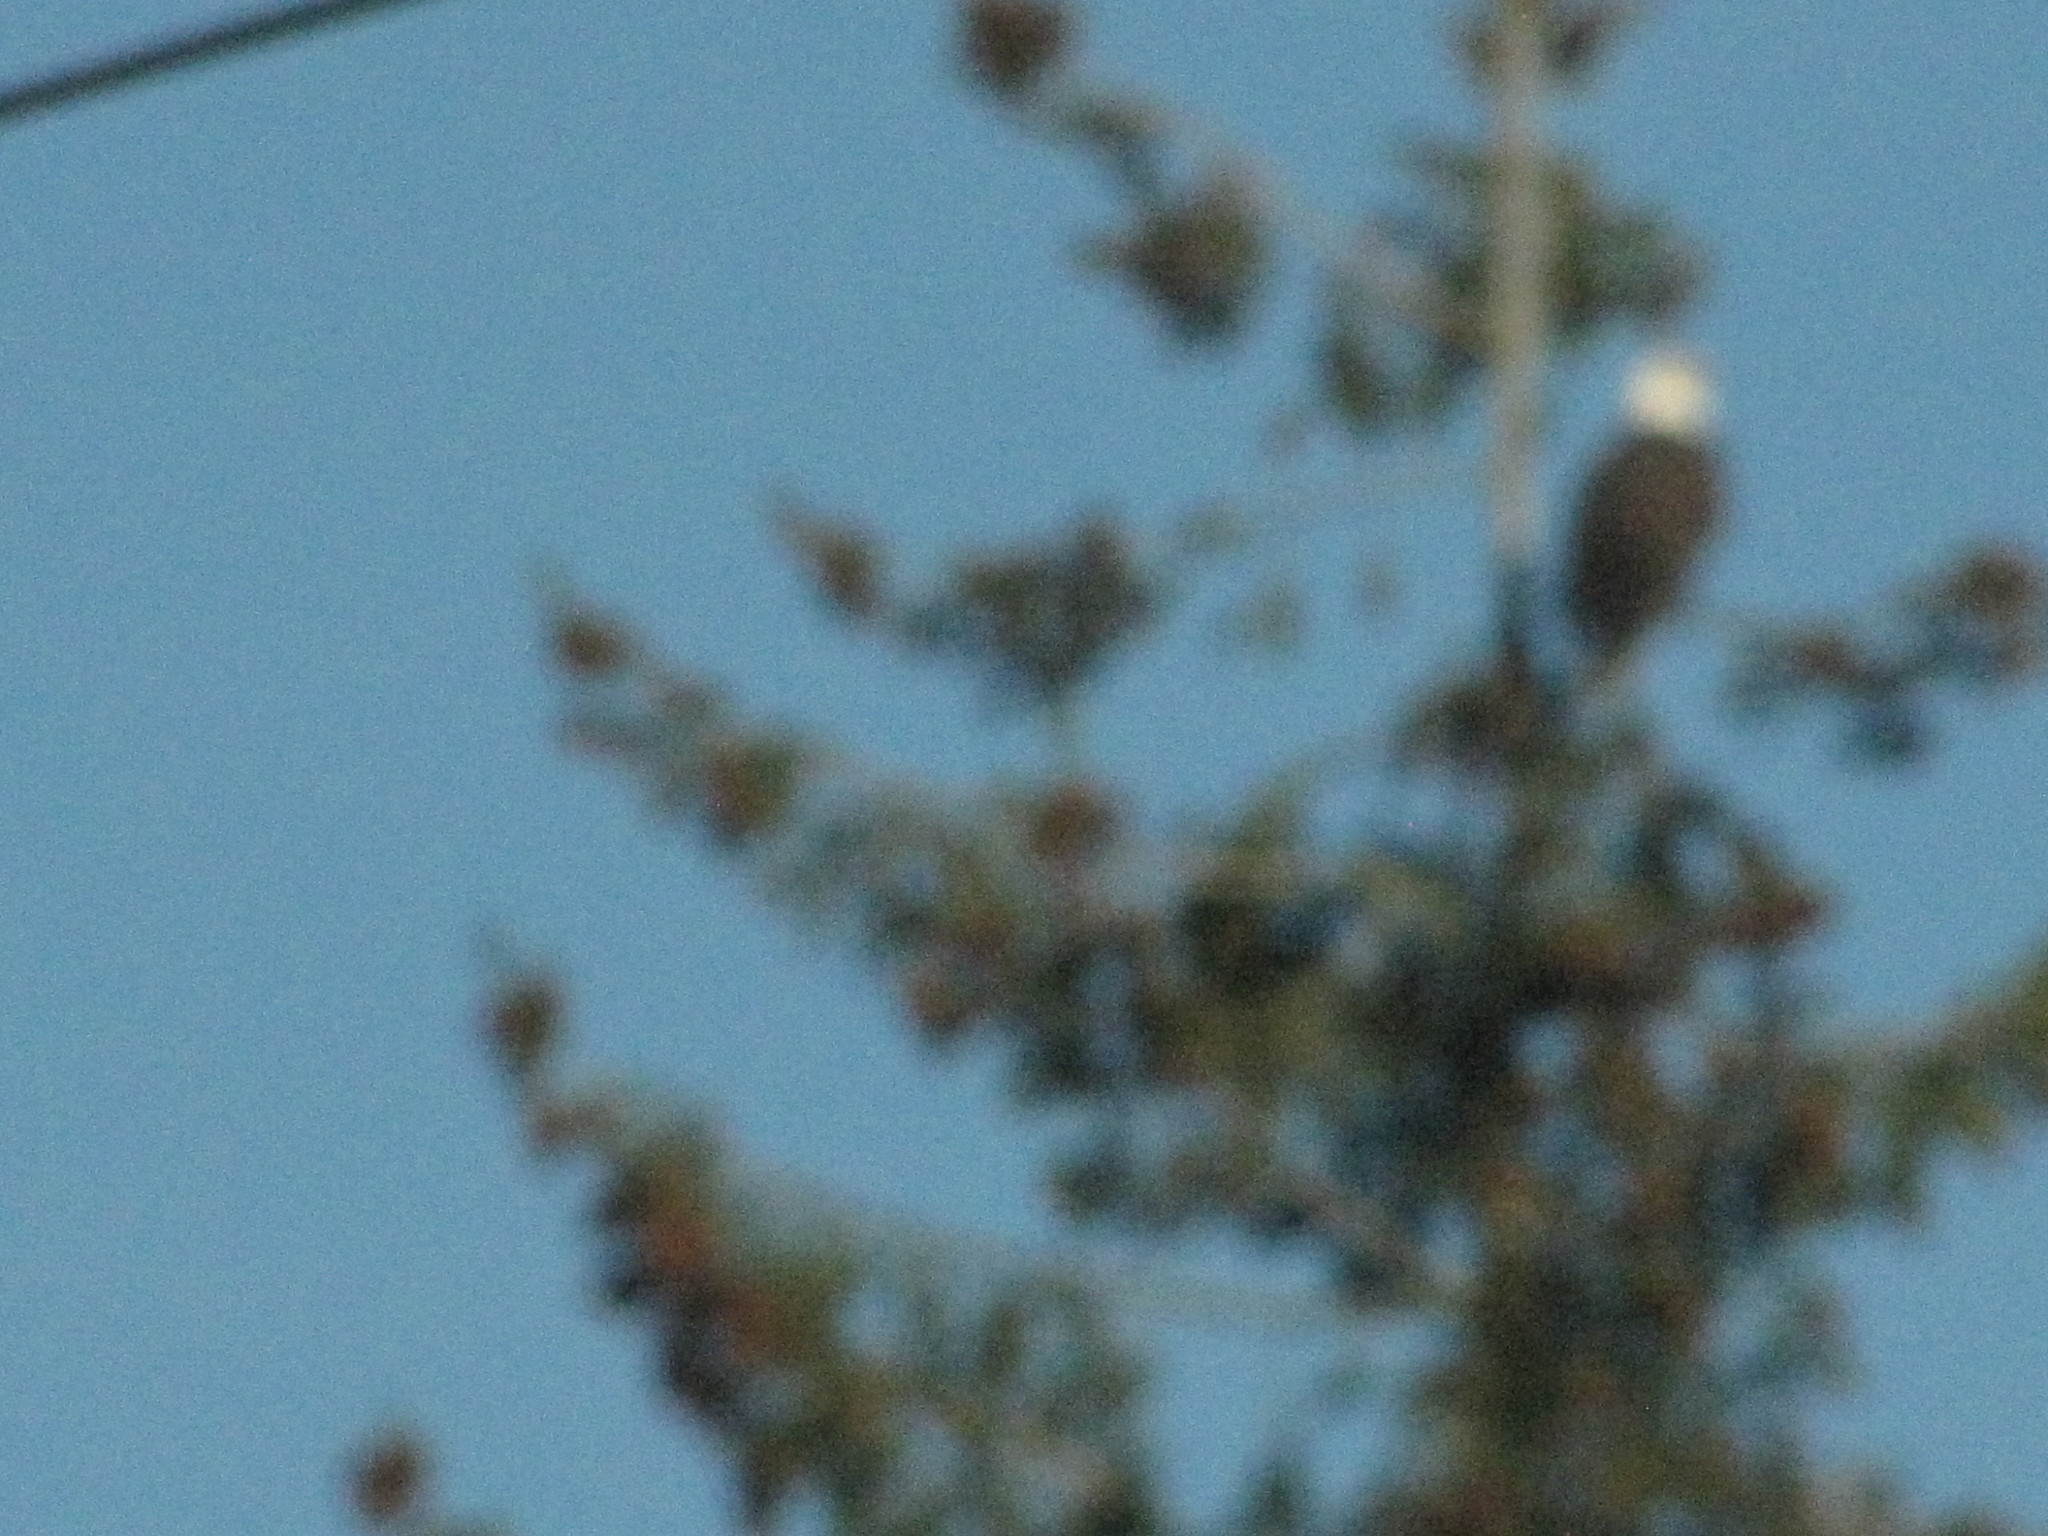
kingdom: Animalia
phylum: Chordata
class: Aves
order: Accipitriformes
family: Accipitridae
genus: Haliaeetus
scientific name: Haliaeetus leucocephalus
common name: Bald eagle
